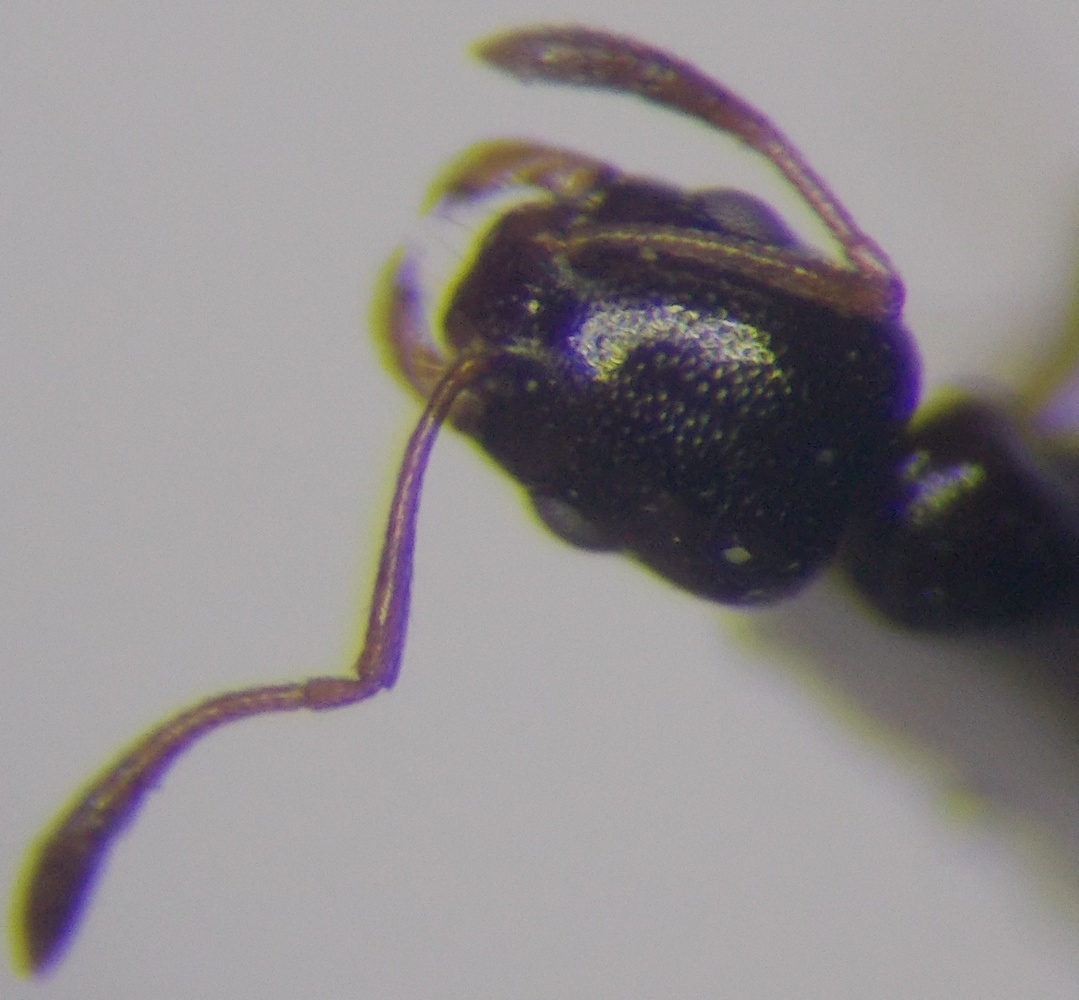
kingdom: Animalia
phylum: Arthropoda
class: Insecta
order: Hymenoptera
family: Formicidae
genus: Cardiocondyla
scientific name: Cardiocondyla ulianini
